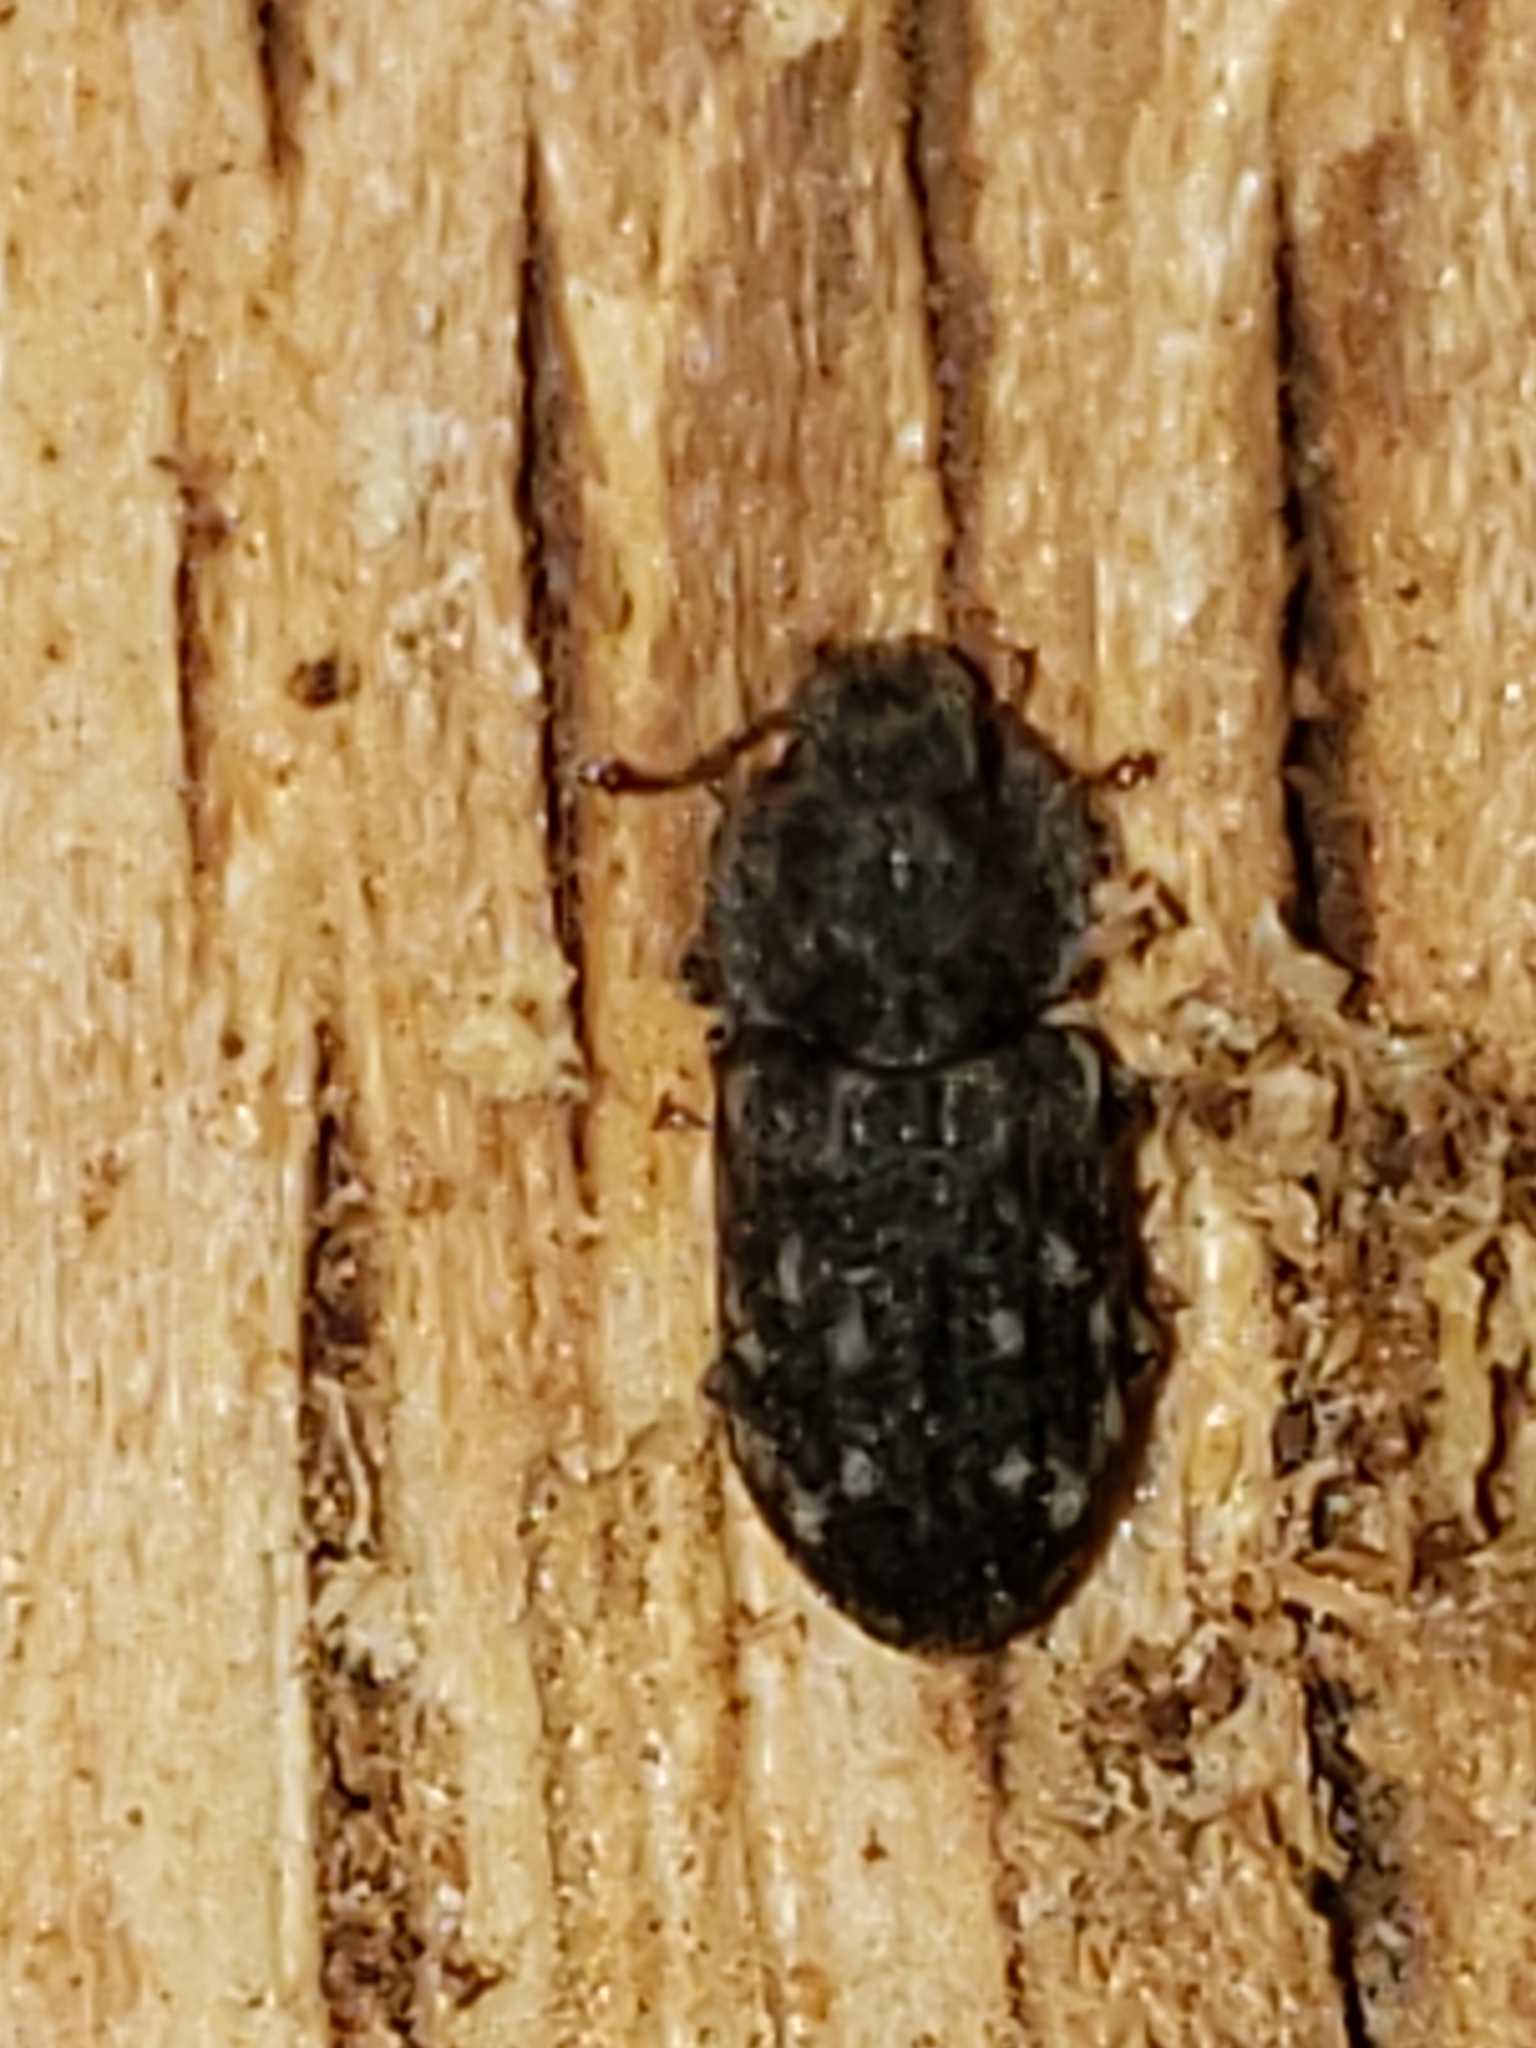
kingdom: Animalia
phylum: Arthropoda
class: Insecta
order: Coleoptera
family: Zopheridae
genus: Namunaria
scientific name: Namunaria guttulata
